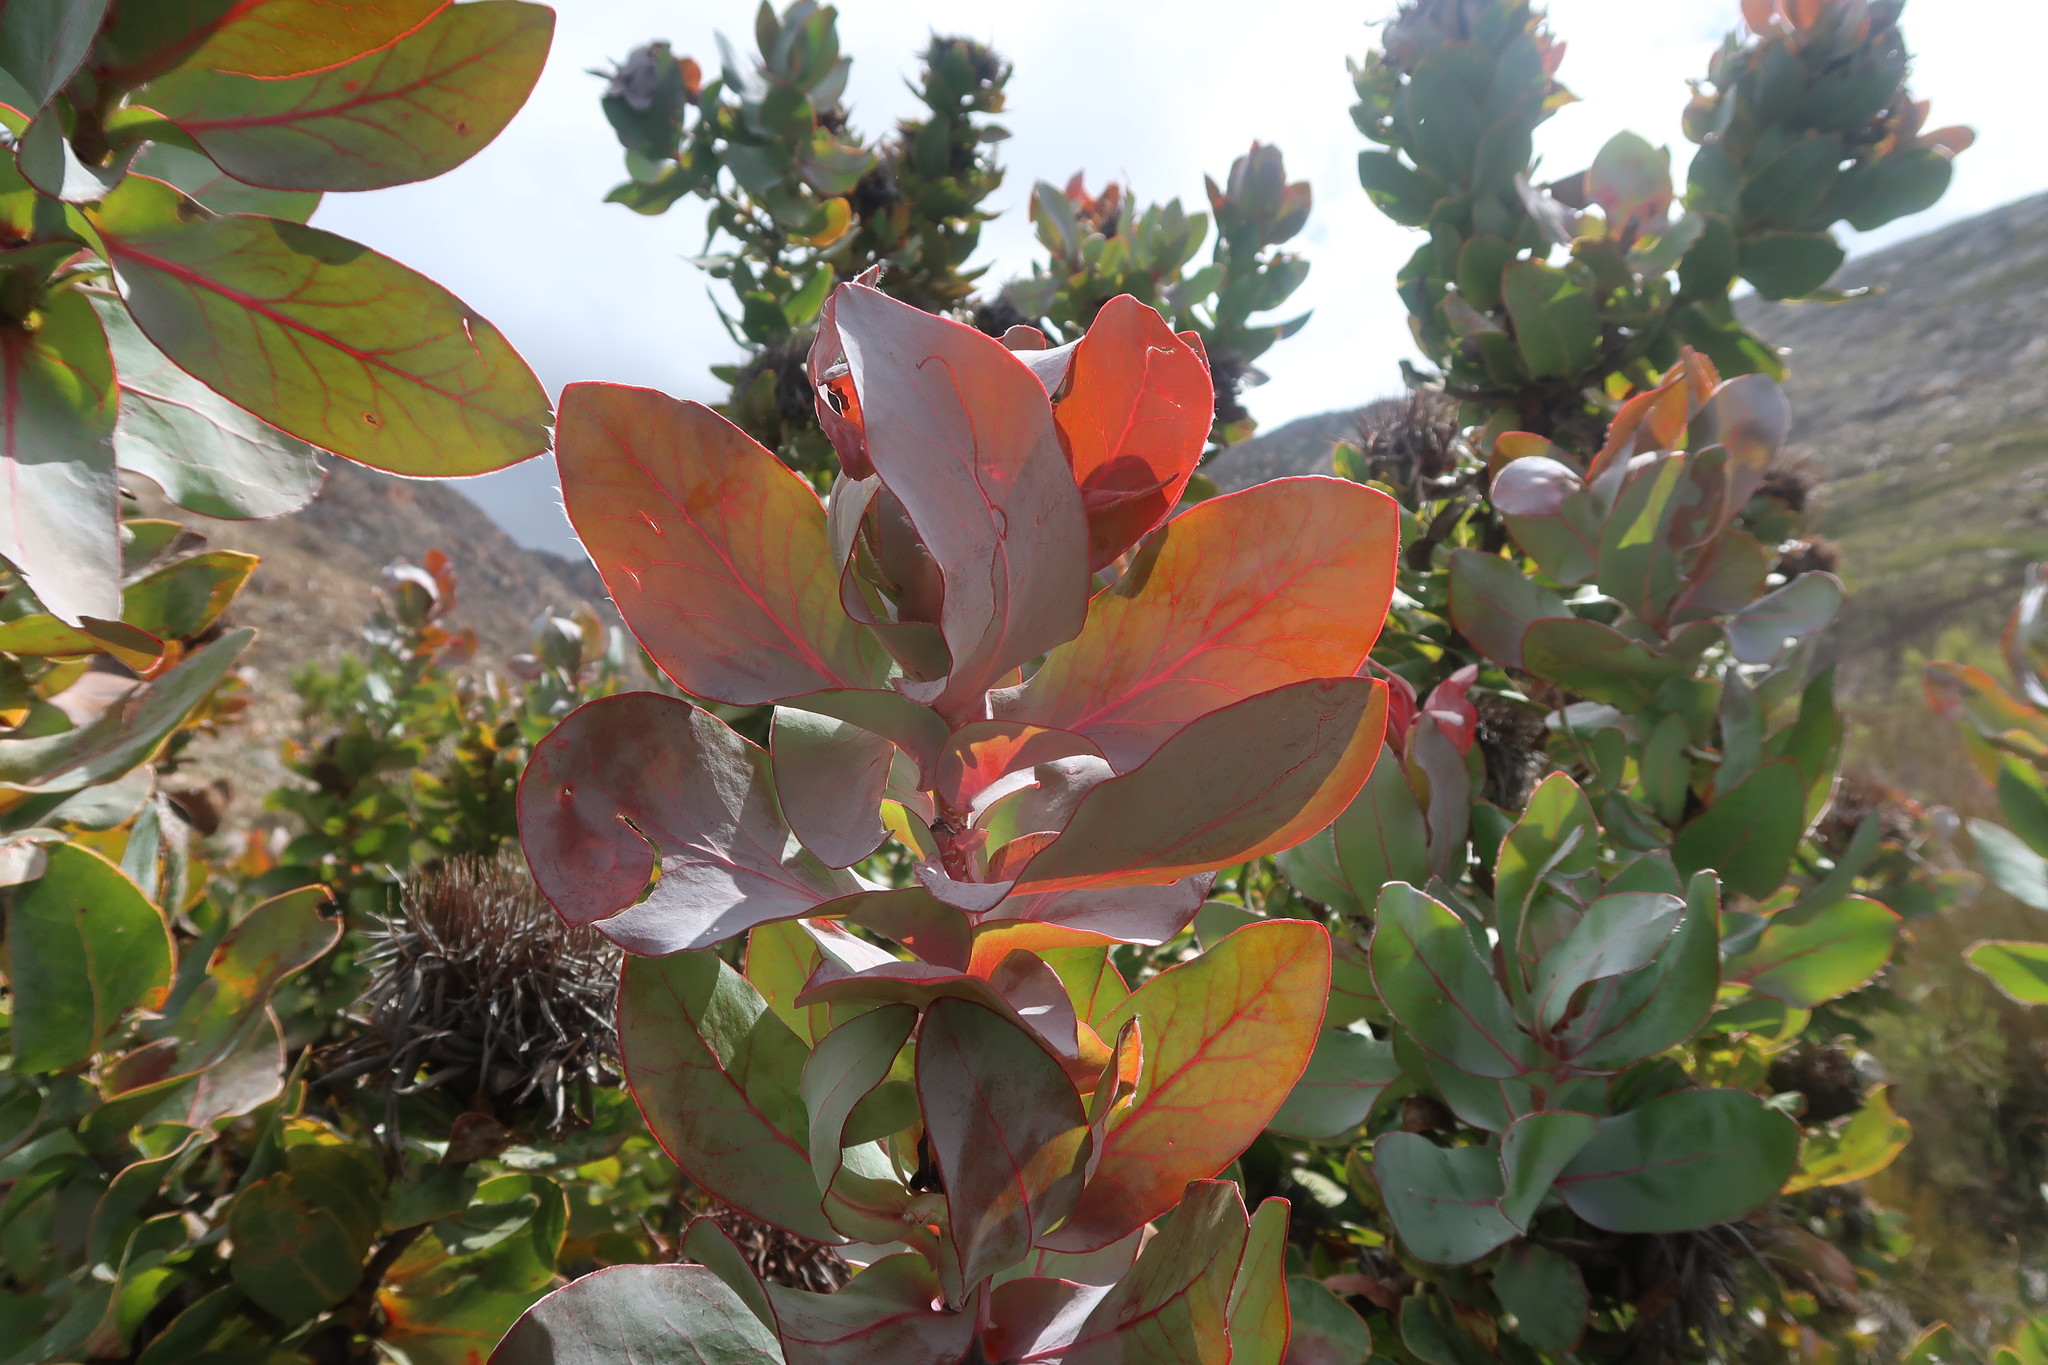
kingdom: Plantae
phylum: Tracheophyta
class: Magnoliopsida
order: Proteales
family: Proteaceae
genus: Protea
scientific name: Protea eximia
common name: Broad-leaved sugarbush
